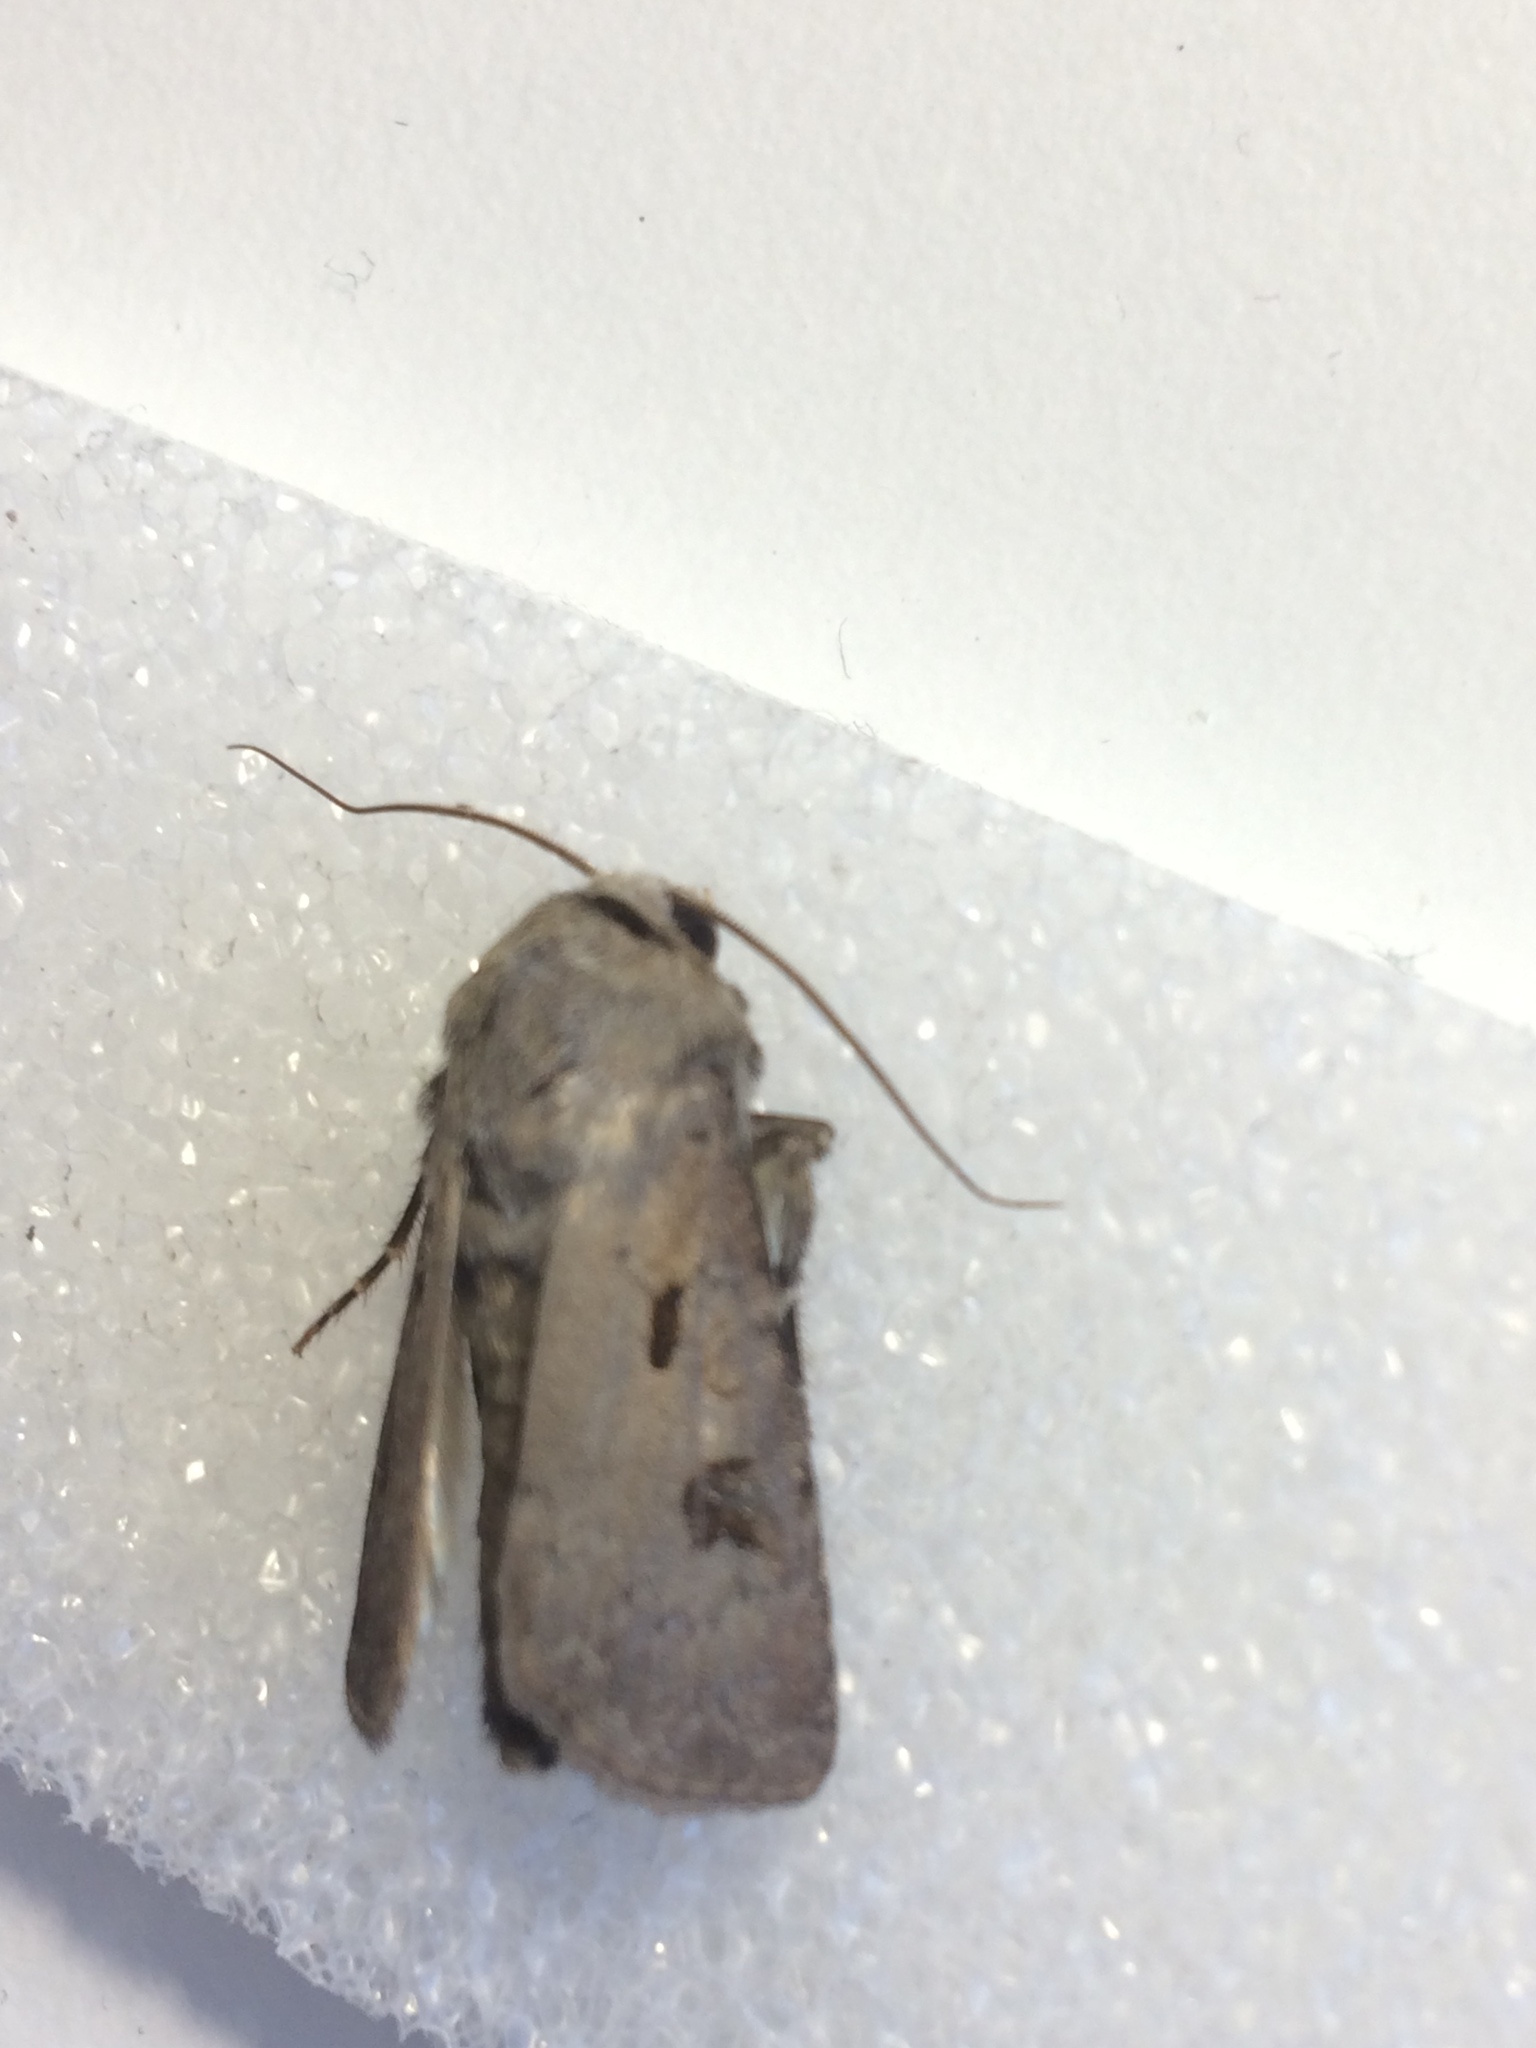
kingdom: Animalia
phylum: Arthropoda
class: Insecta
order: Lepidoptera
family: Noctuidae
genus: Agrotis
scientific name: Agrotis exclamationis
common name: Heart and dart
